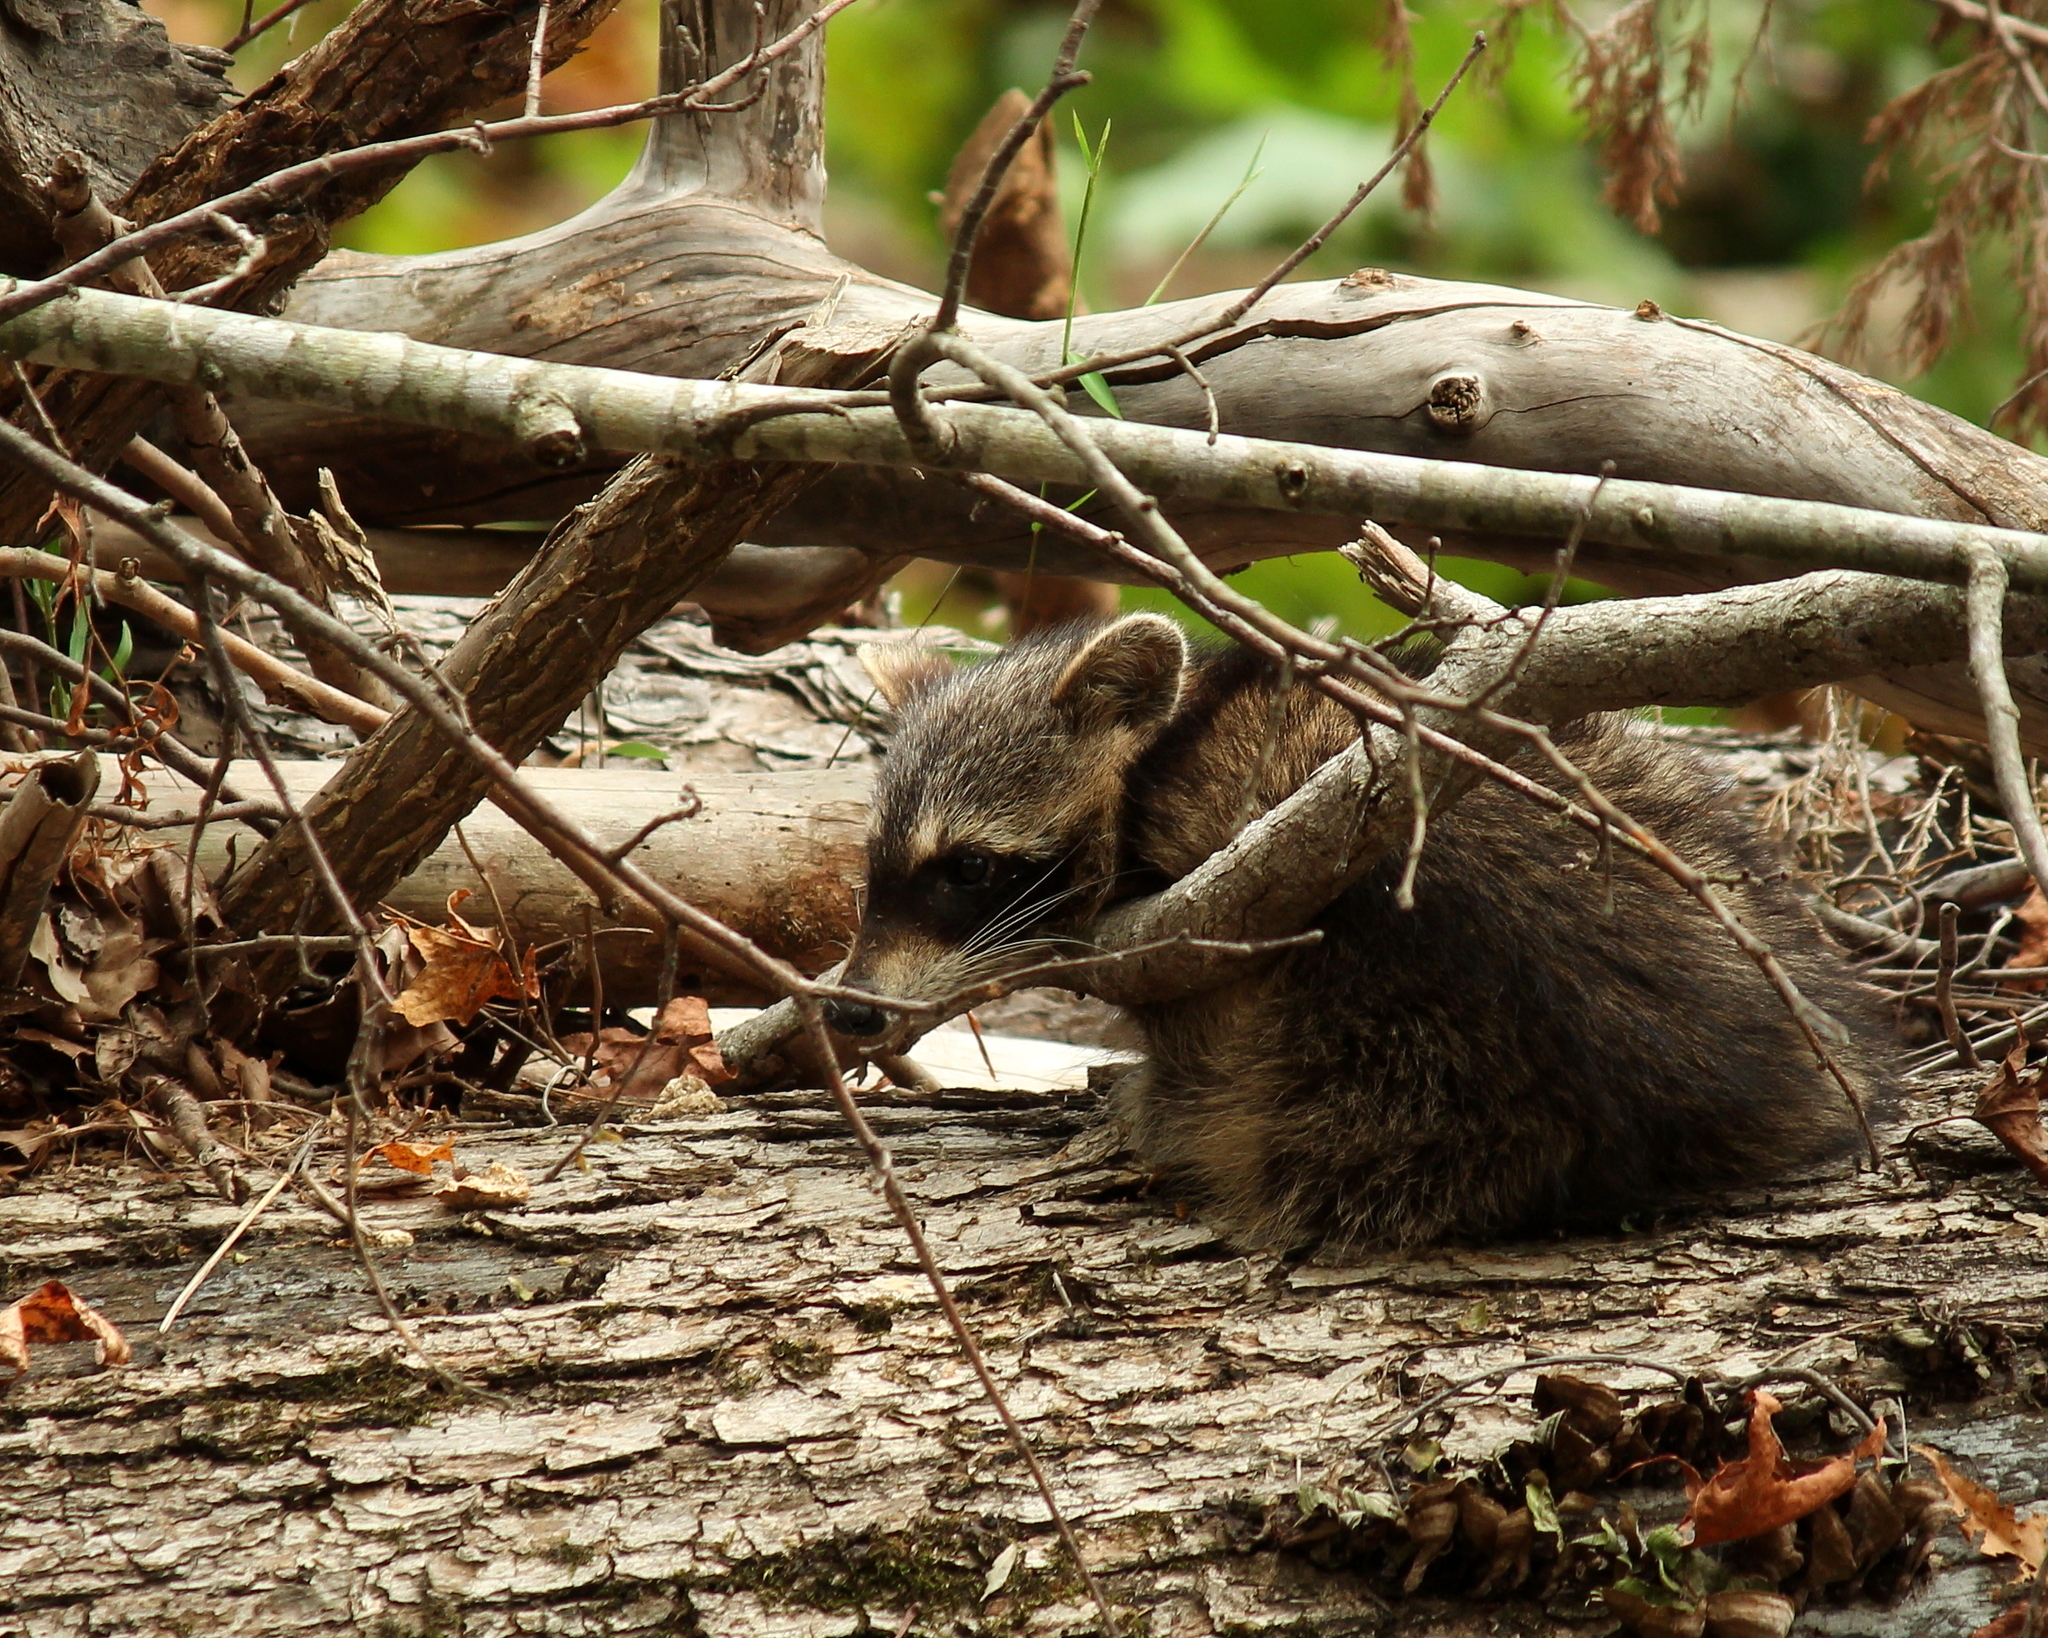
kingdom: Animalia
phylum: Chordata
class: Mammalia
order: Carnivora
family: Procyonidae
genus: Procyon
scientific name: Procyon lotor
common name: Raccoon
